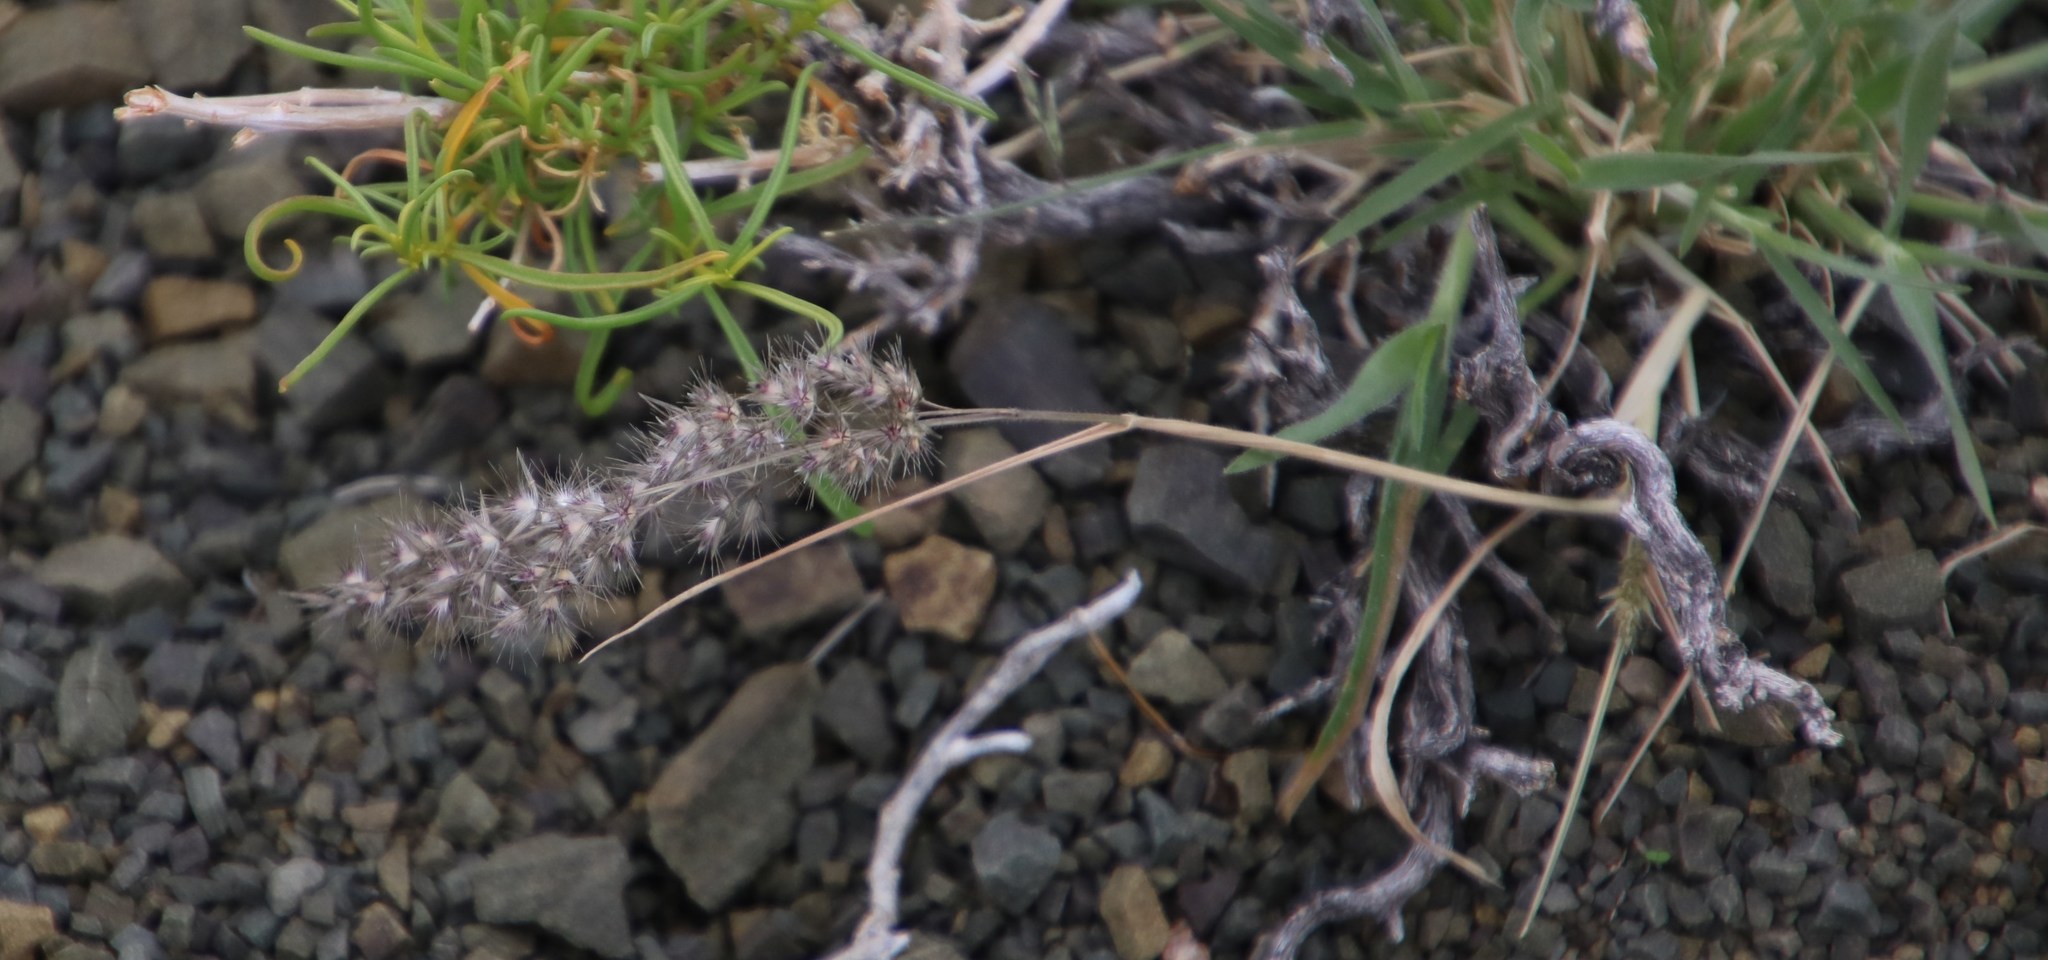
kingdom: Plantae
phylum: Tracheophyta
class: Liliopsida
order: Poales
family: Poaceae
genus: Enneapogon
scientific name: Enneapogon scaber
